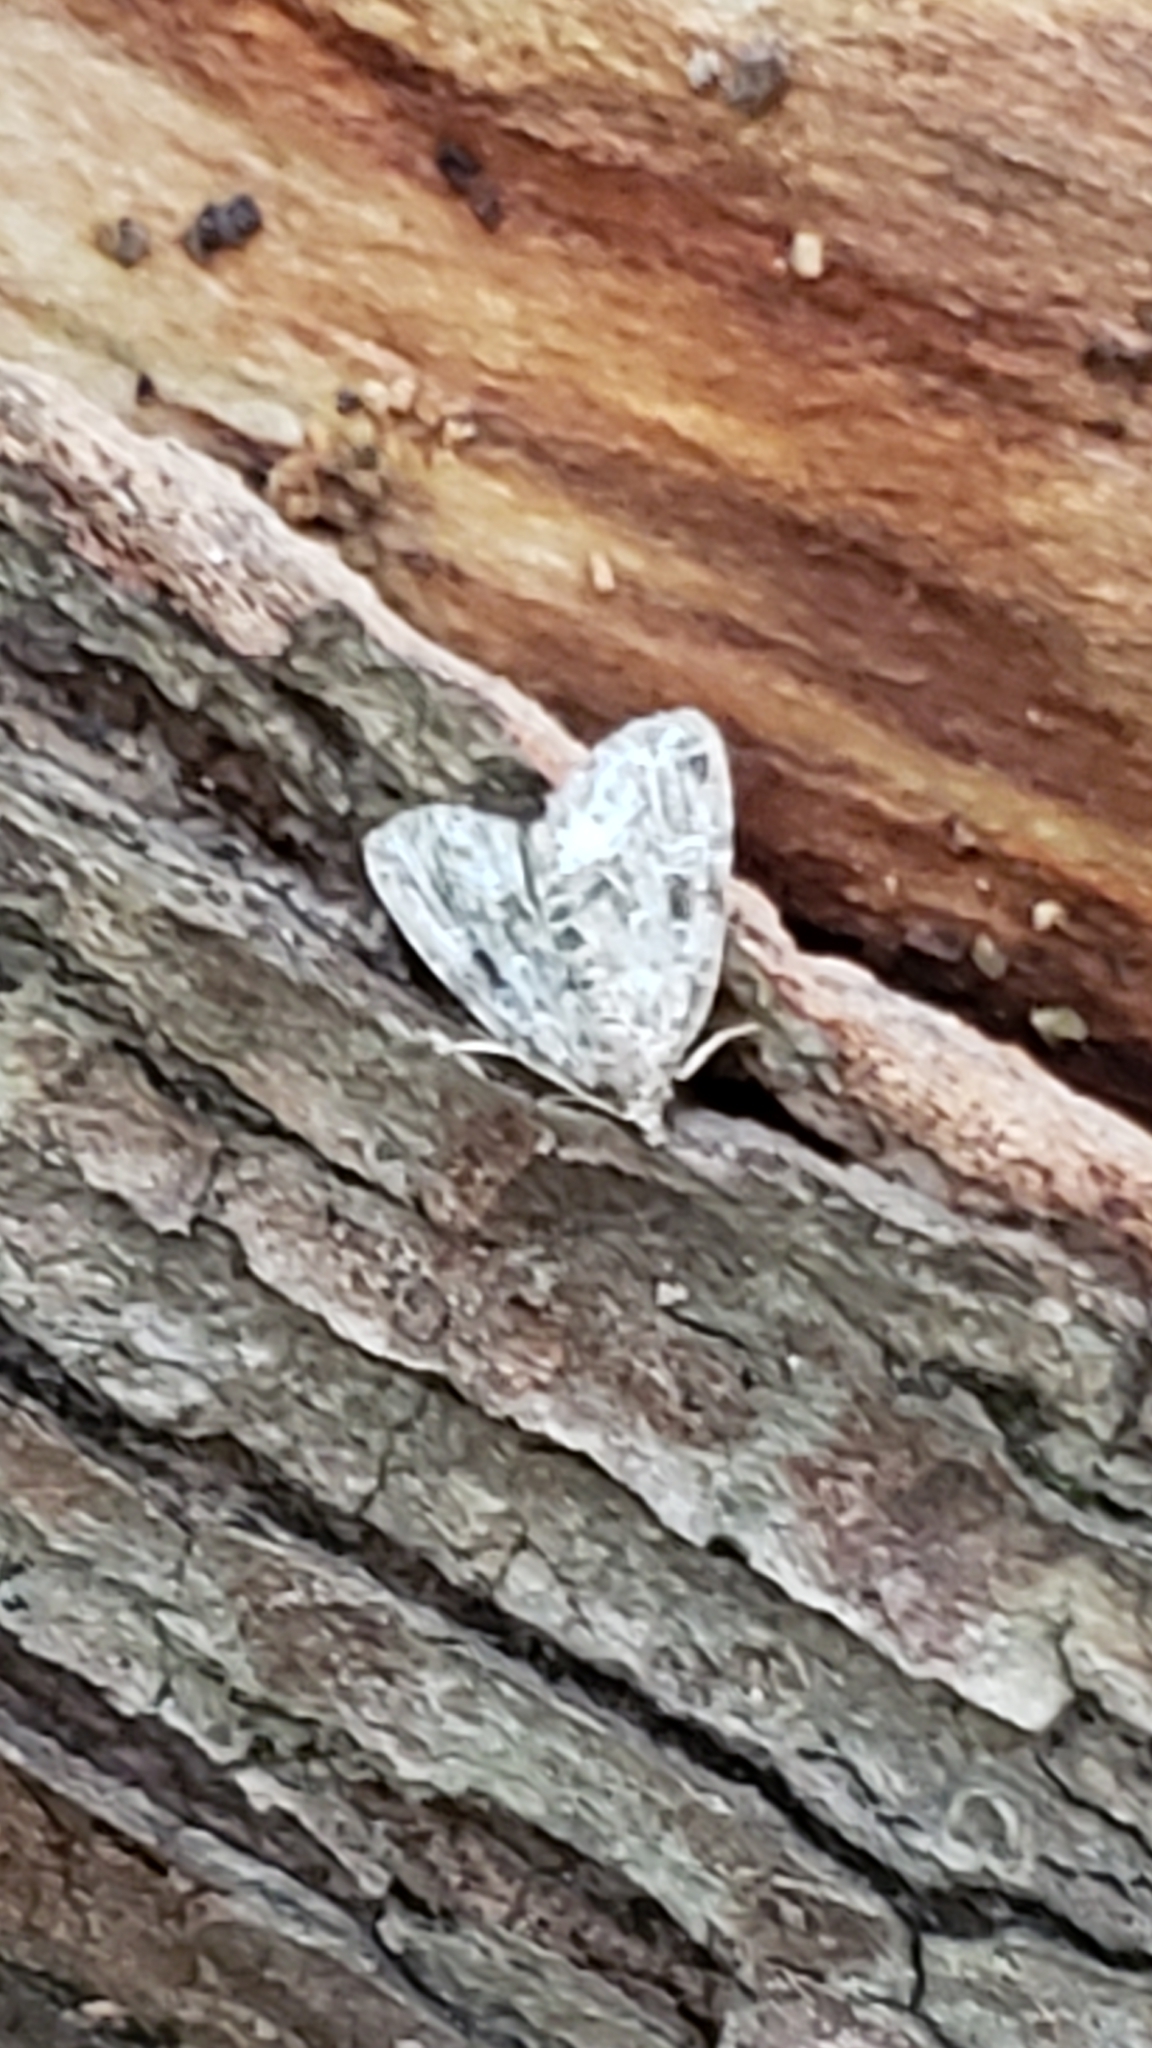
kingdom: Animalia
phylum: Arthropoda
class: Insecta
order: Lepidoptera
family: Noctuidae
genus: Protodeltote
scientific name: Protodeltote muscosula
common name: Large mossy glyph
